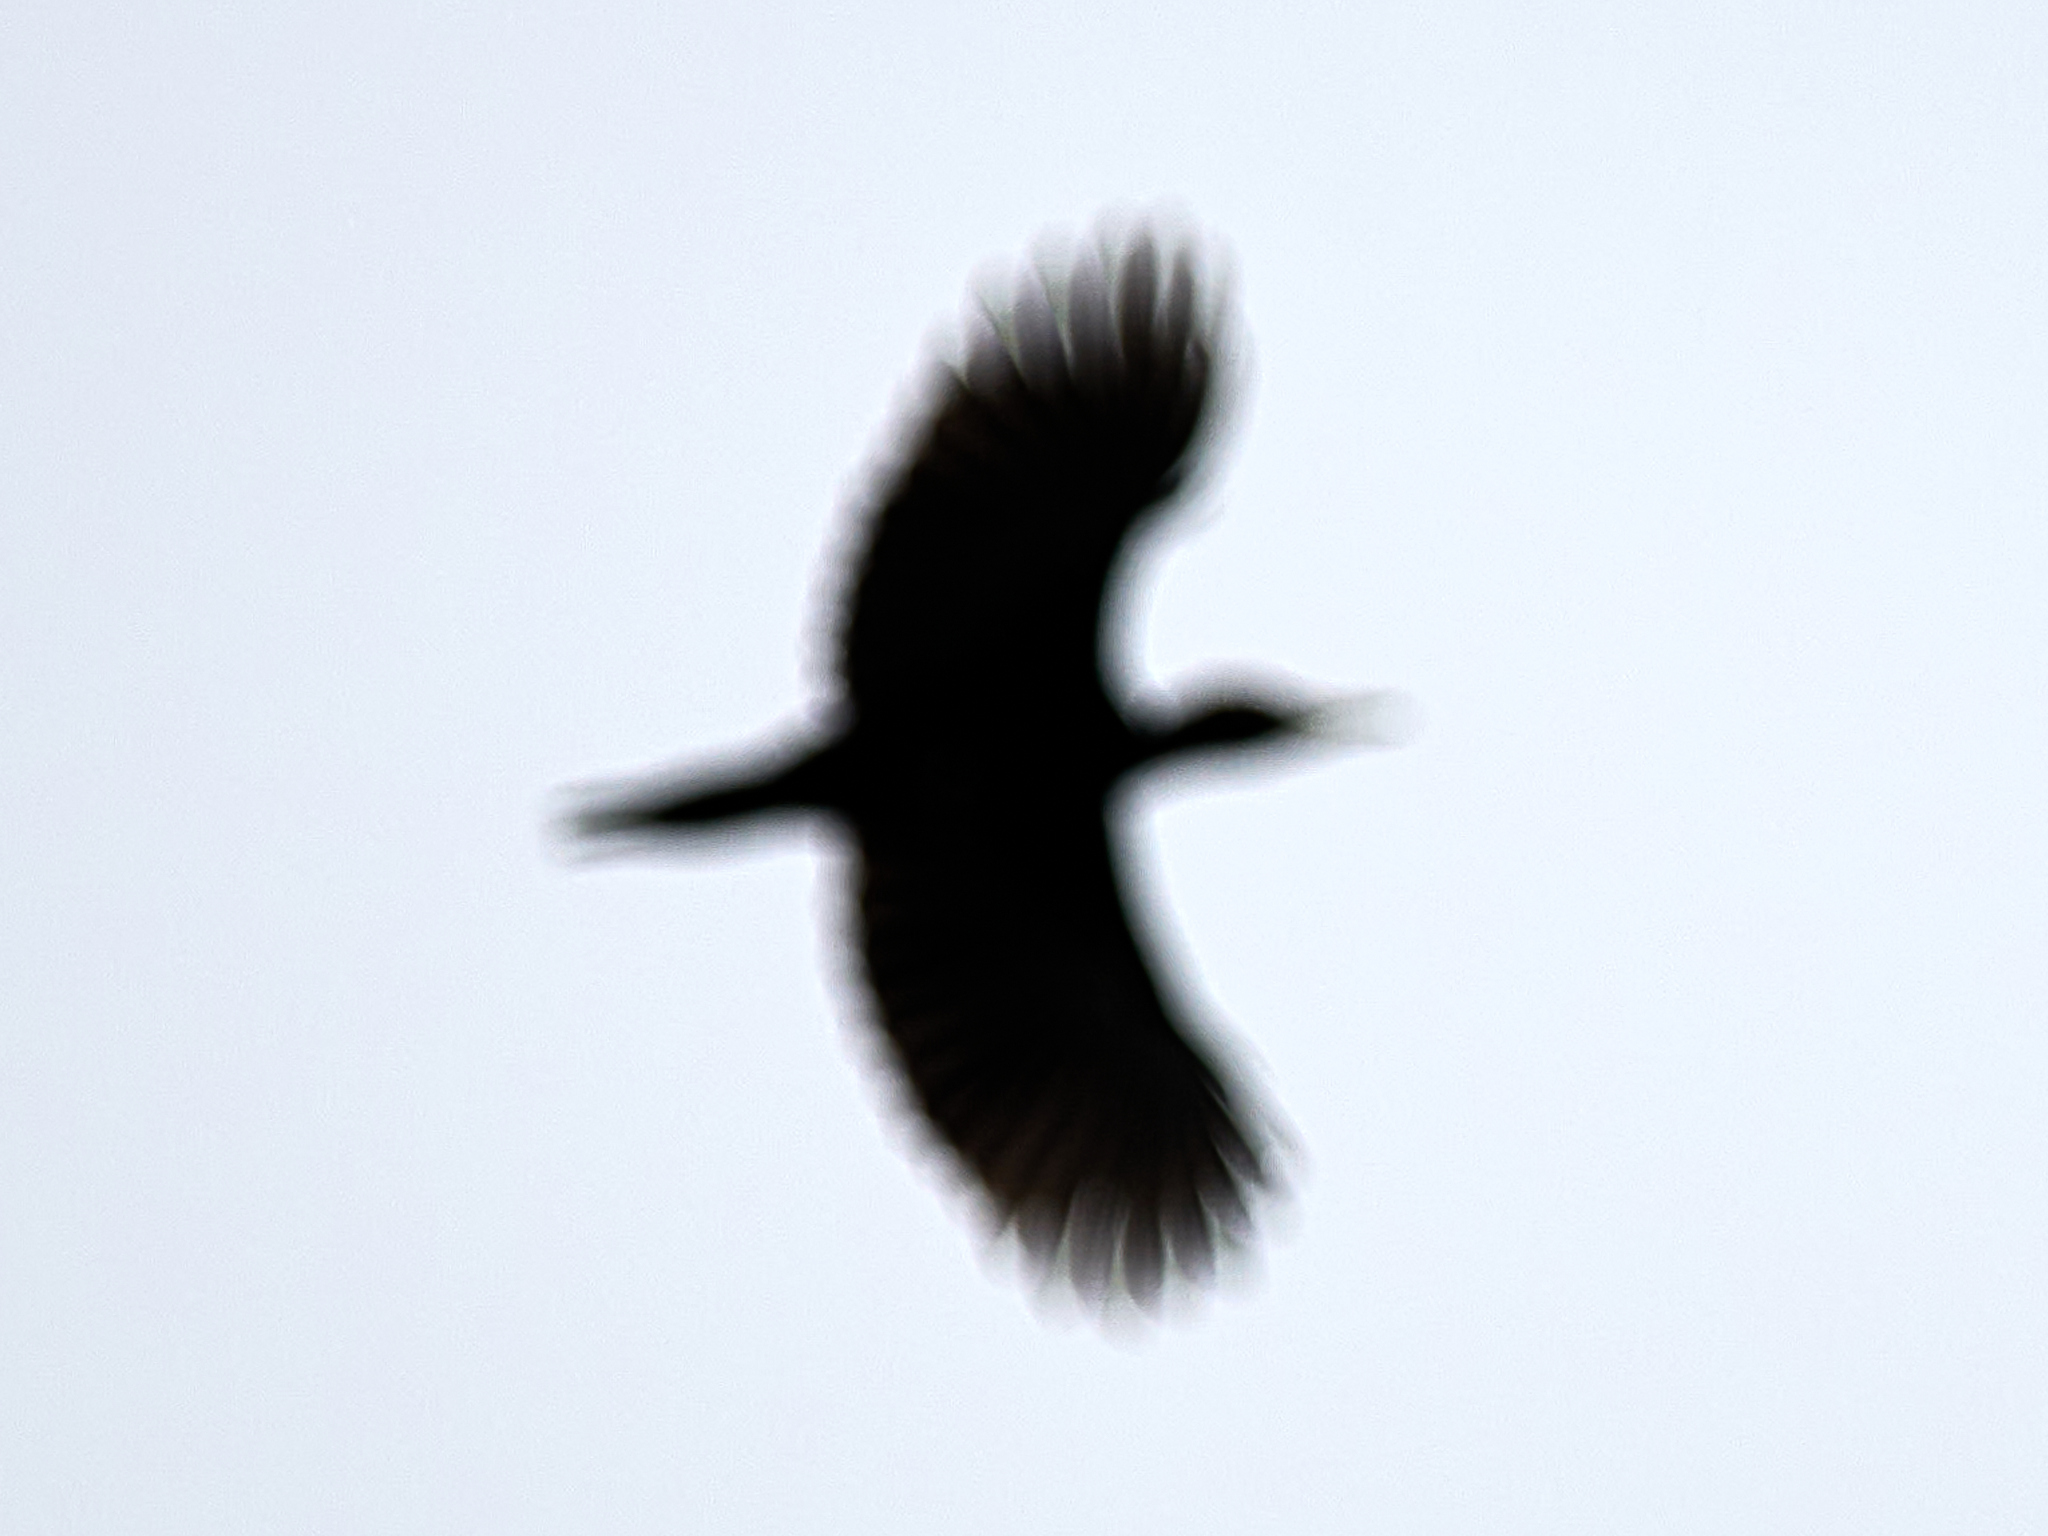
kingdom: Animalia
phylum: Chordata
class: Aves
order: Piciformes
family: Picidae
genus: Dryocopus
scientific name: Dryocopus martius
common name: Black woodpecker
